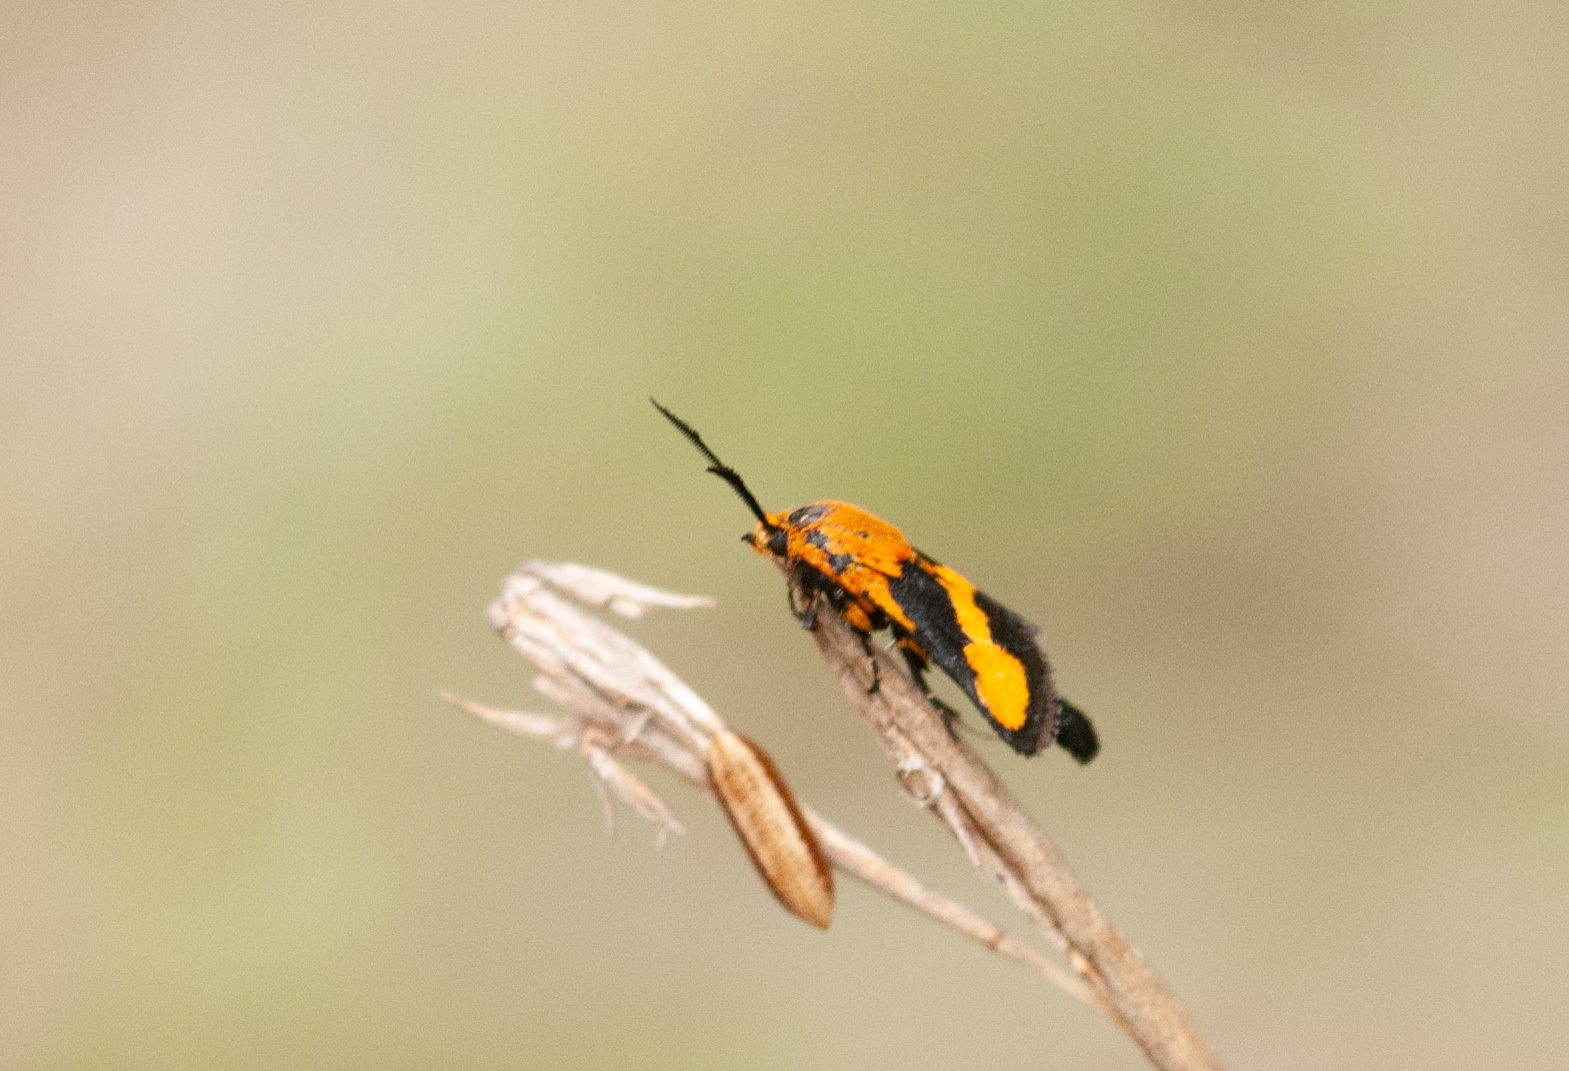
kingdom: Animalia
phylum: Arthropoda
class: Insecta
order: Lepidoptera
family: Brachodidae
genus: Miscera
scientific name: Miscera homotona
